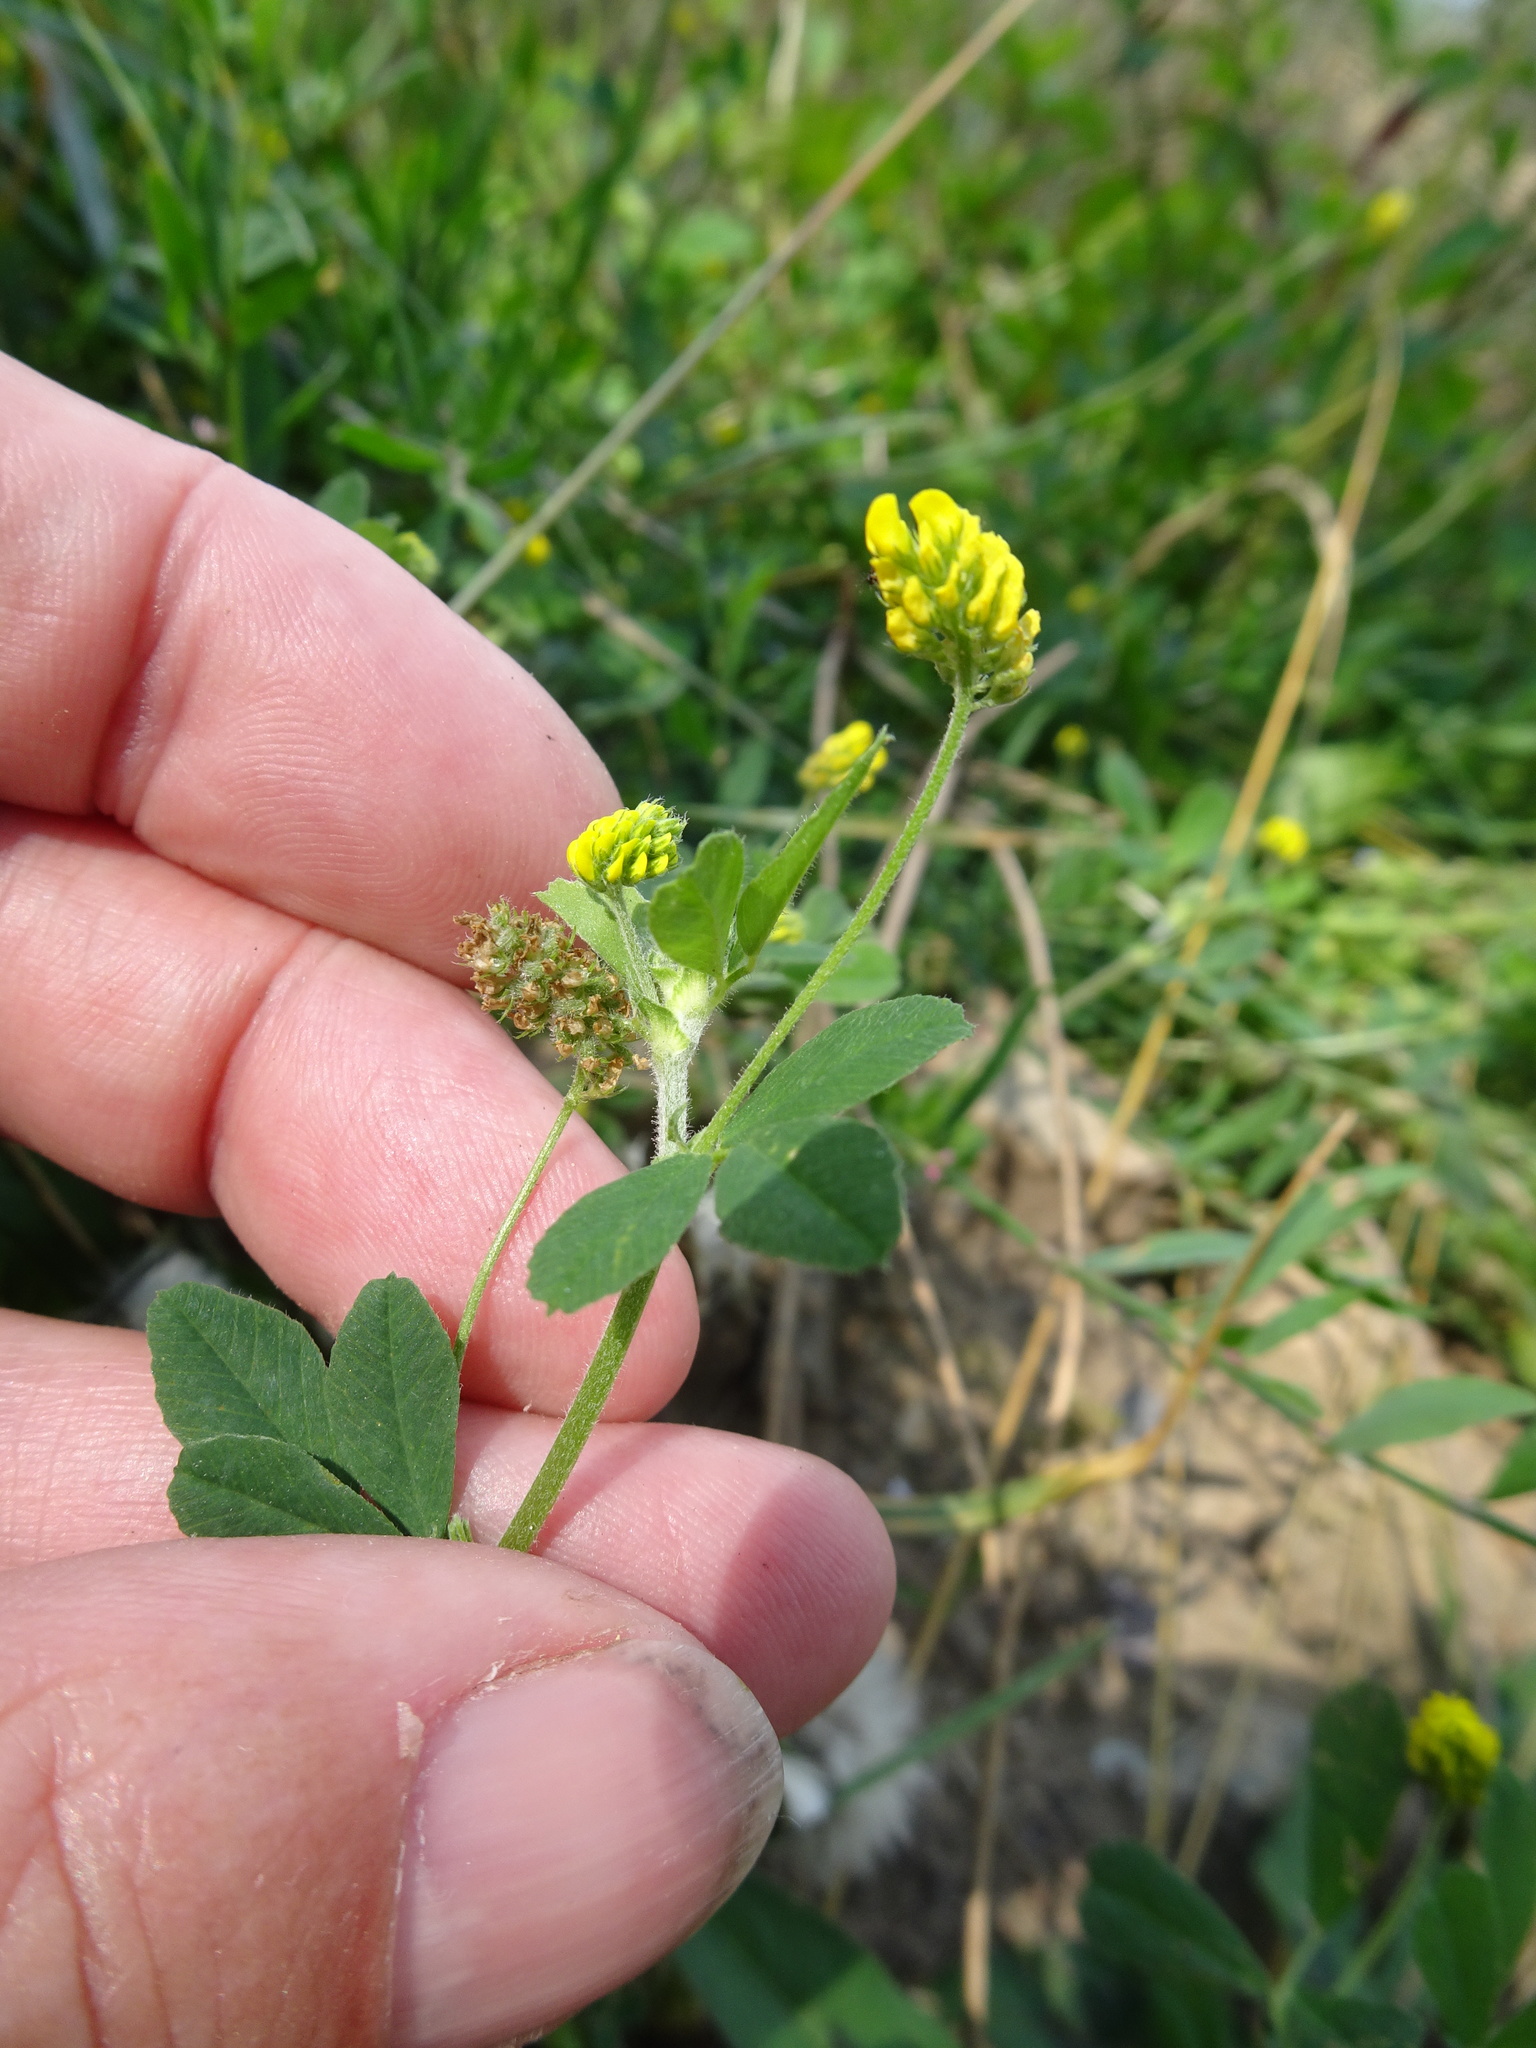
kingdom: Plantae
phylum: Tracheophyta
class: Magnoliopsida
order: Fabales
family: Fabaceae
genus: Medicago
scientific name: Medicago lupulina
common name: Black medick
